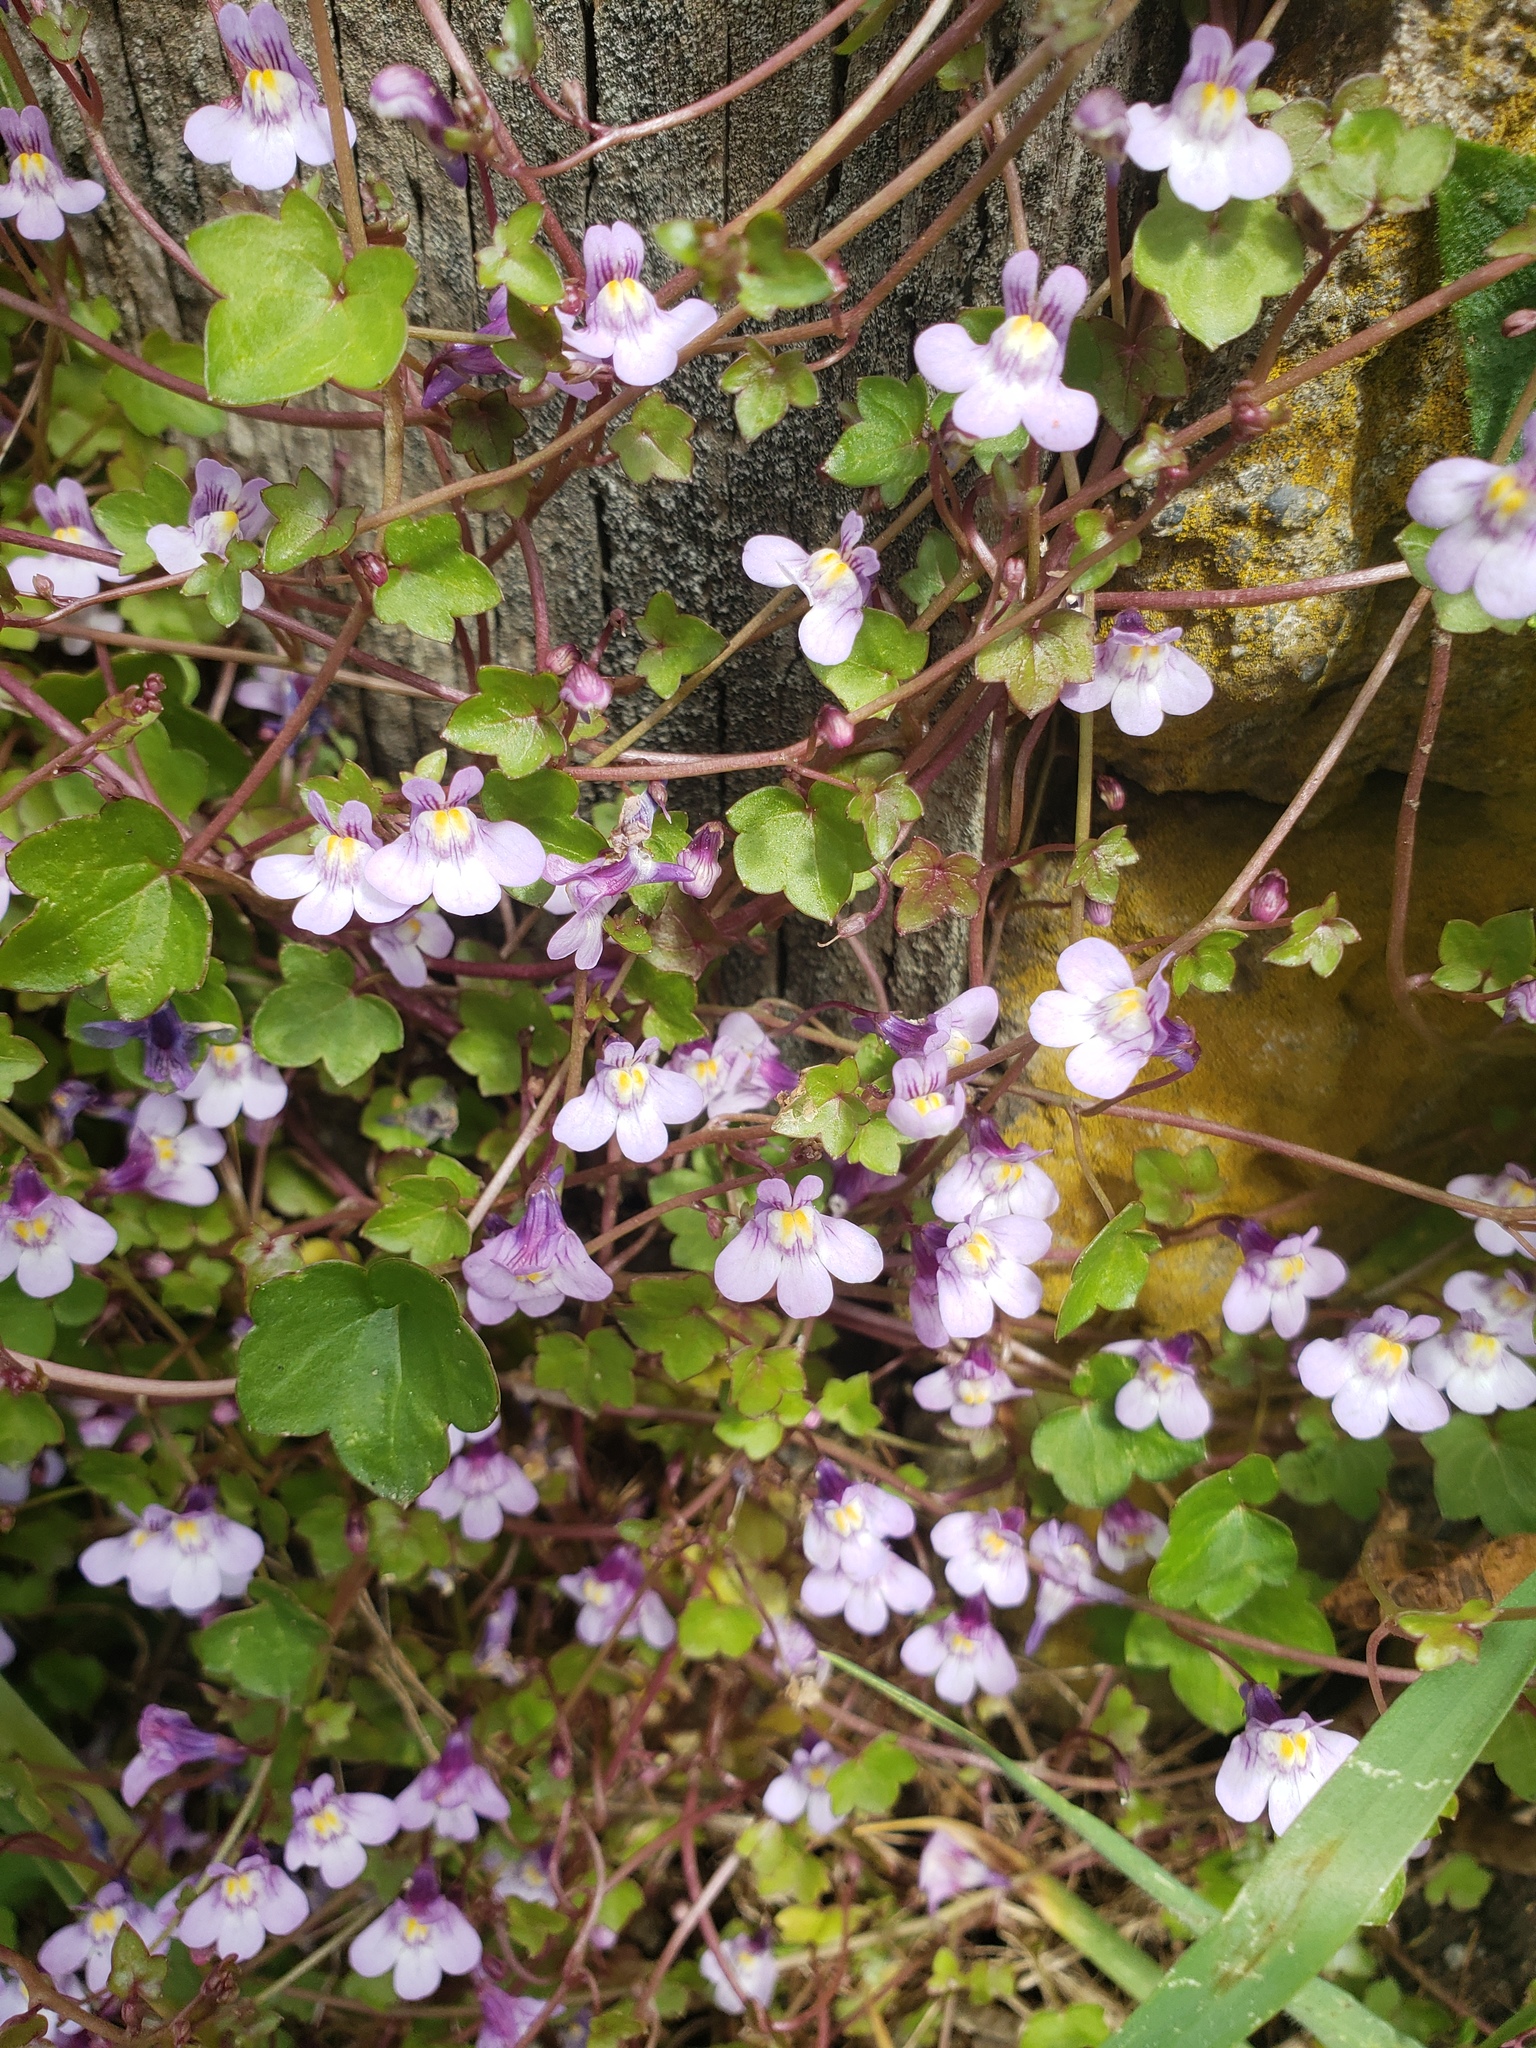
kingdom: Plantae
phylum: Tracheophyta
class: Magnoliopsida
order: Lamiales
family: Plantaginaceae
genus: Cymbalaria
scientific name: Cymbalaria muralis
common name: Ivy-leaved toadflax
